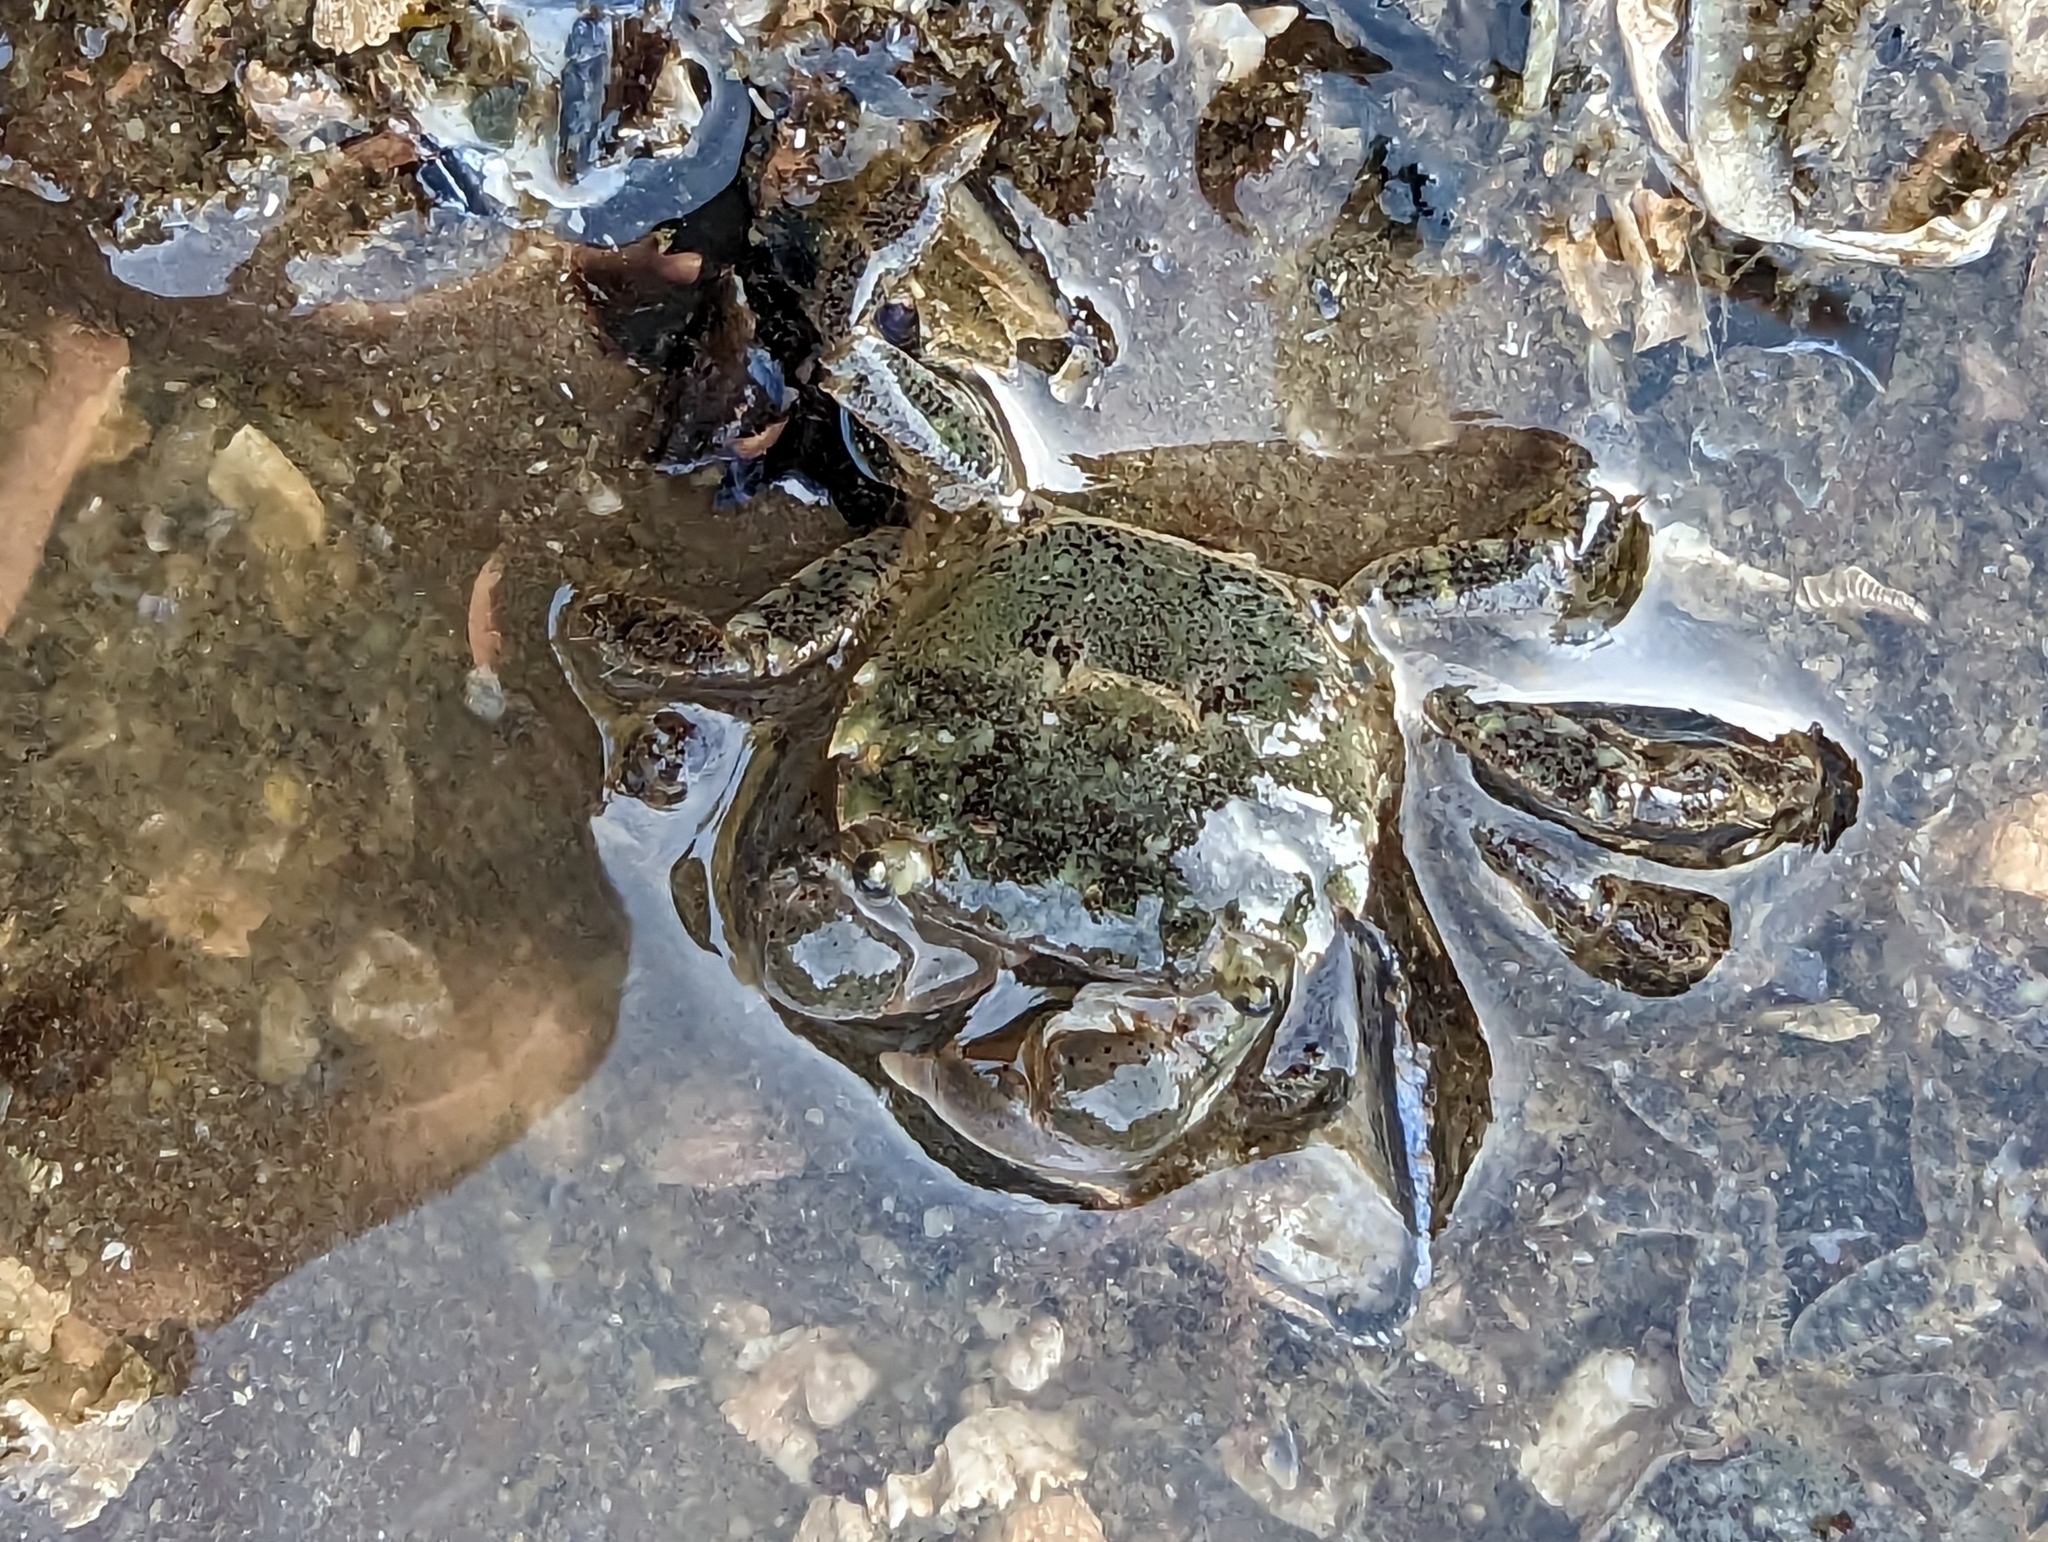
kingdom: Animalia
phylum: Arthropoda
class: Malacostraca
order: Decapoda
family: Varunidae
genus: Hemigrapsus
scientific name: Hemigrapsus oregonensis
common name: Yellow shore crab
